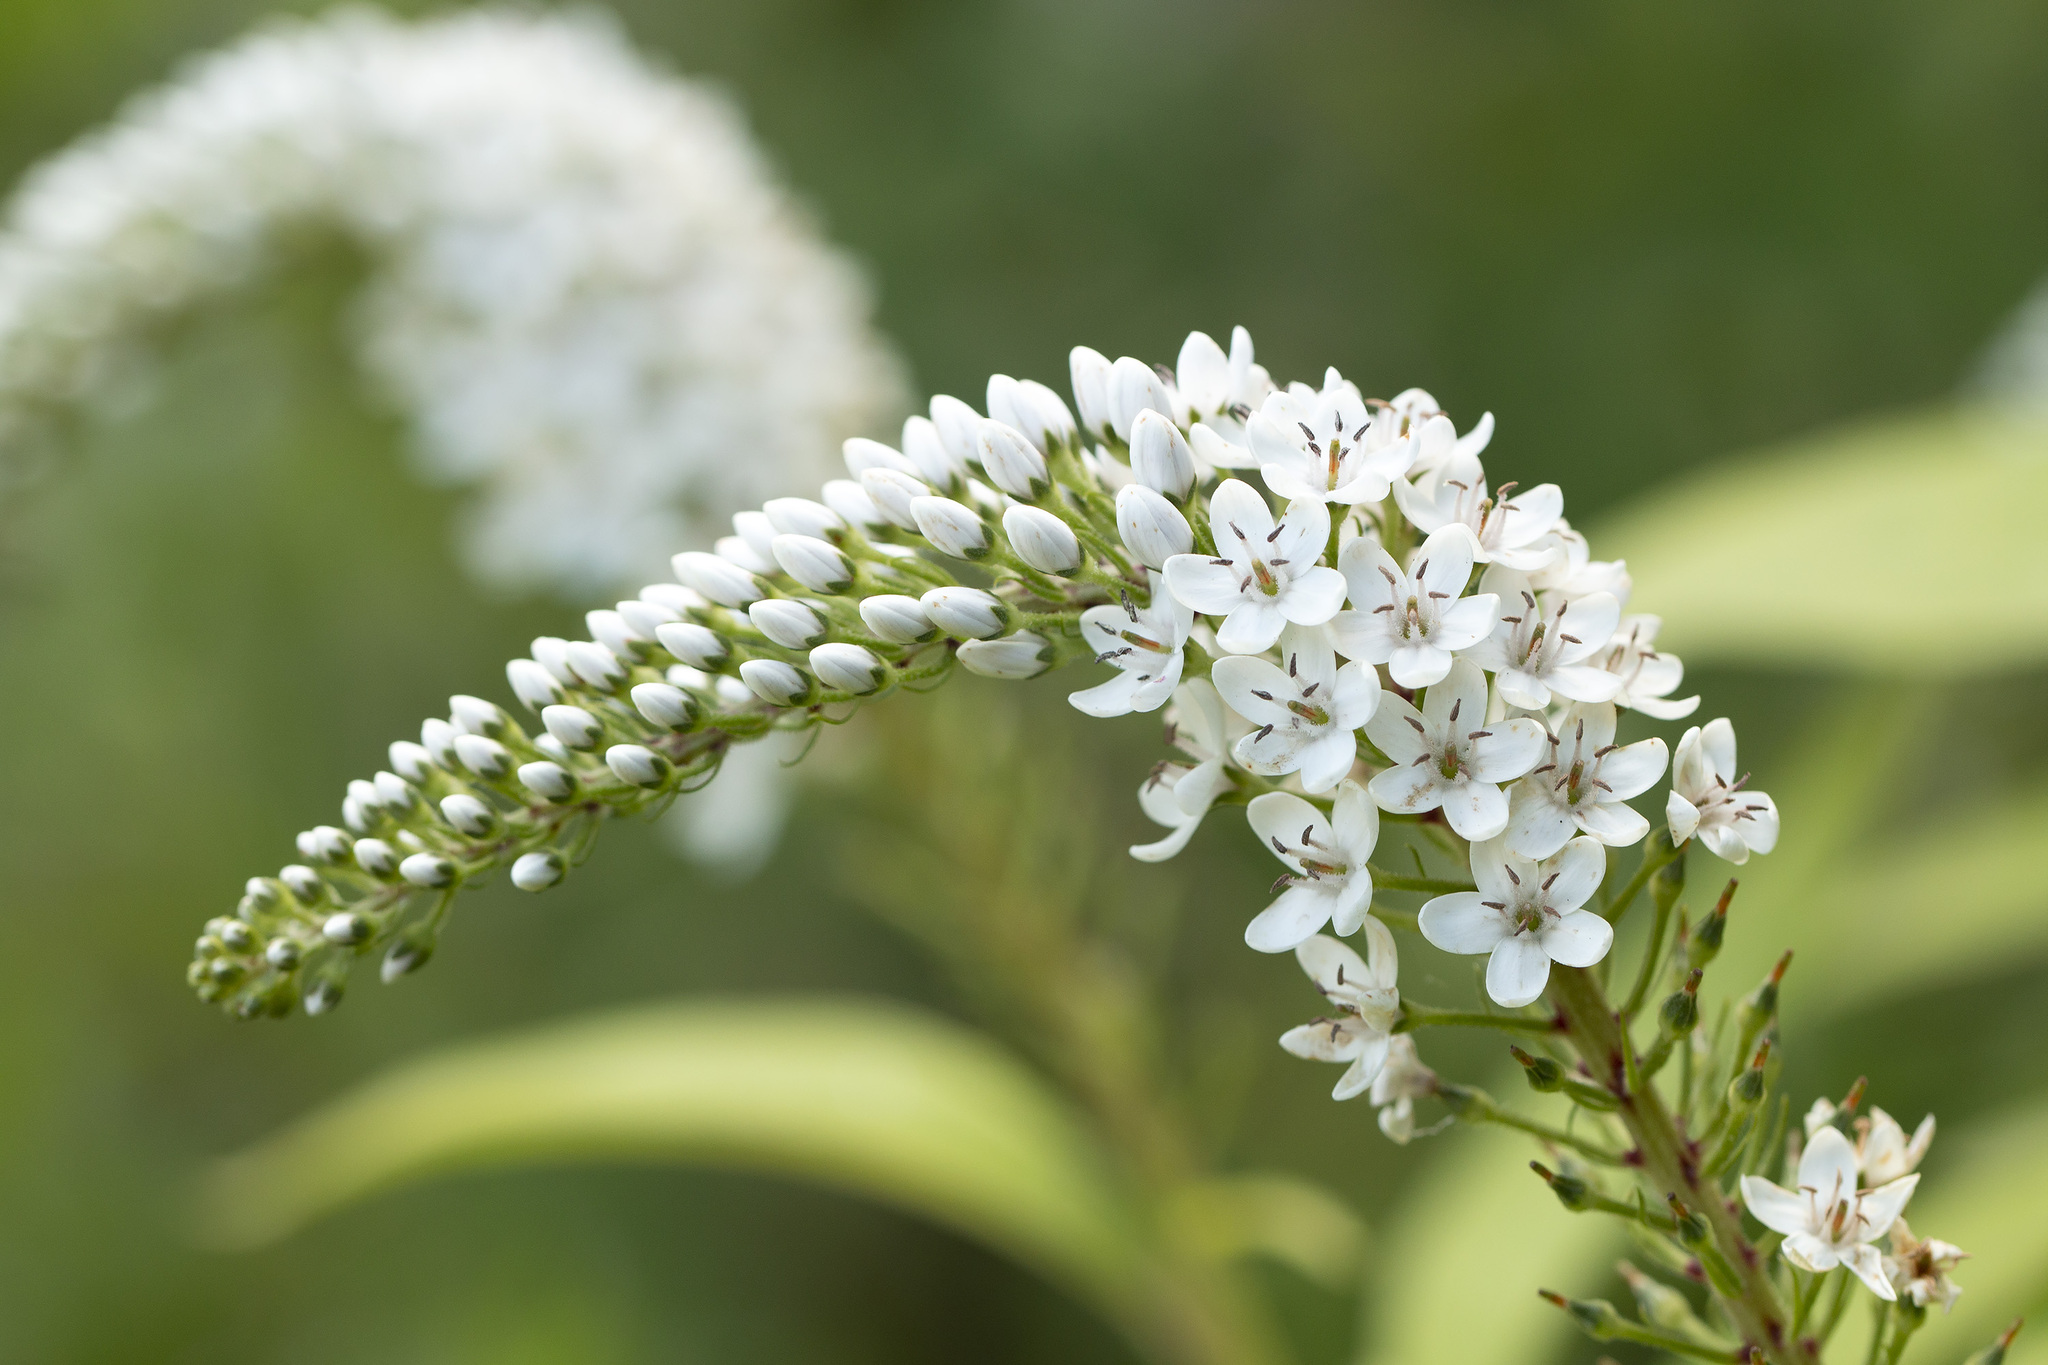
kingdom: Plantae
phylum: Tracheophyta
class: Magnoliopsida
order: Ericales
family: Primulaceae
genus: Lysimachia
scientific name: Lysimachia clethroides
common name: Gooseneck loosestrife
